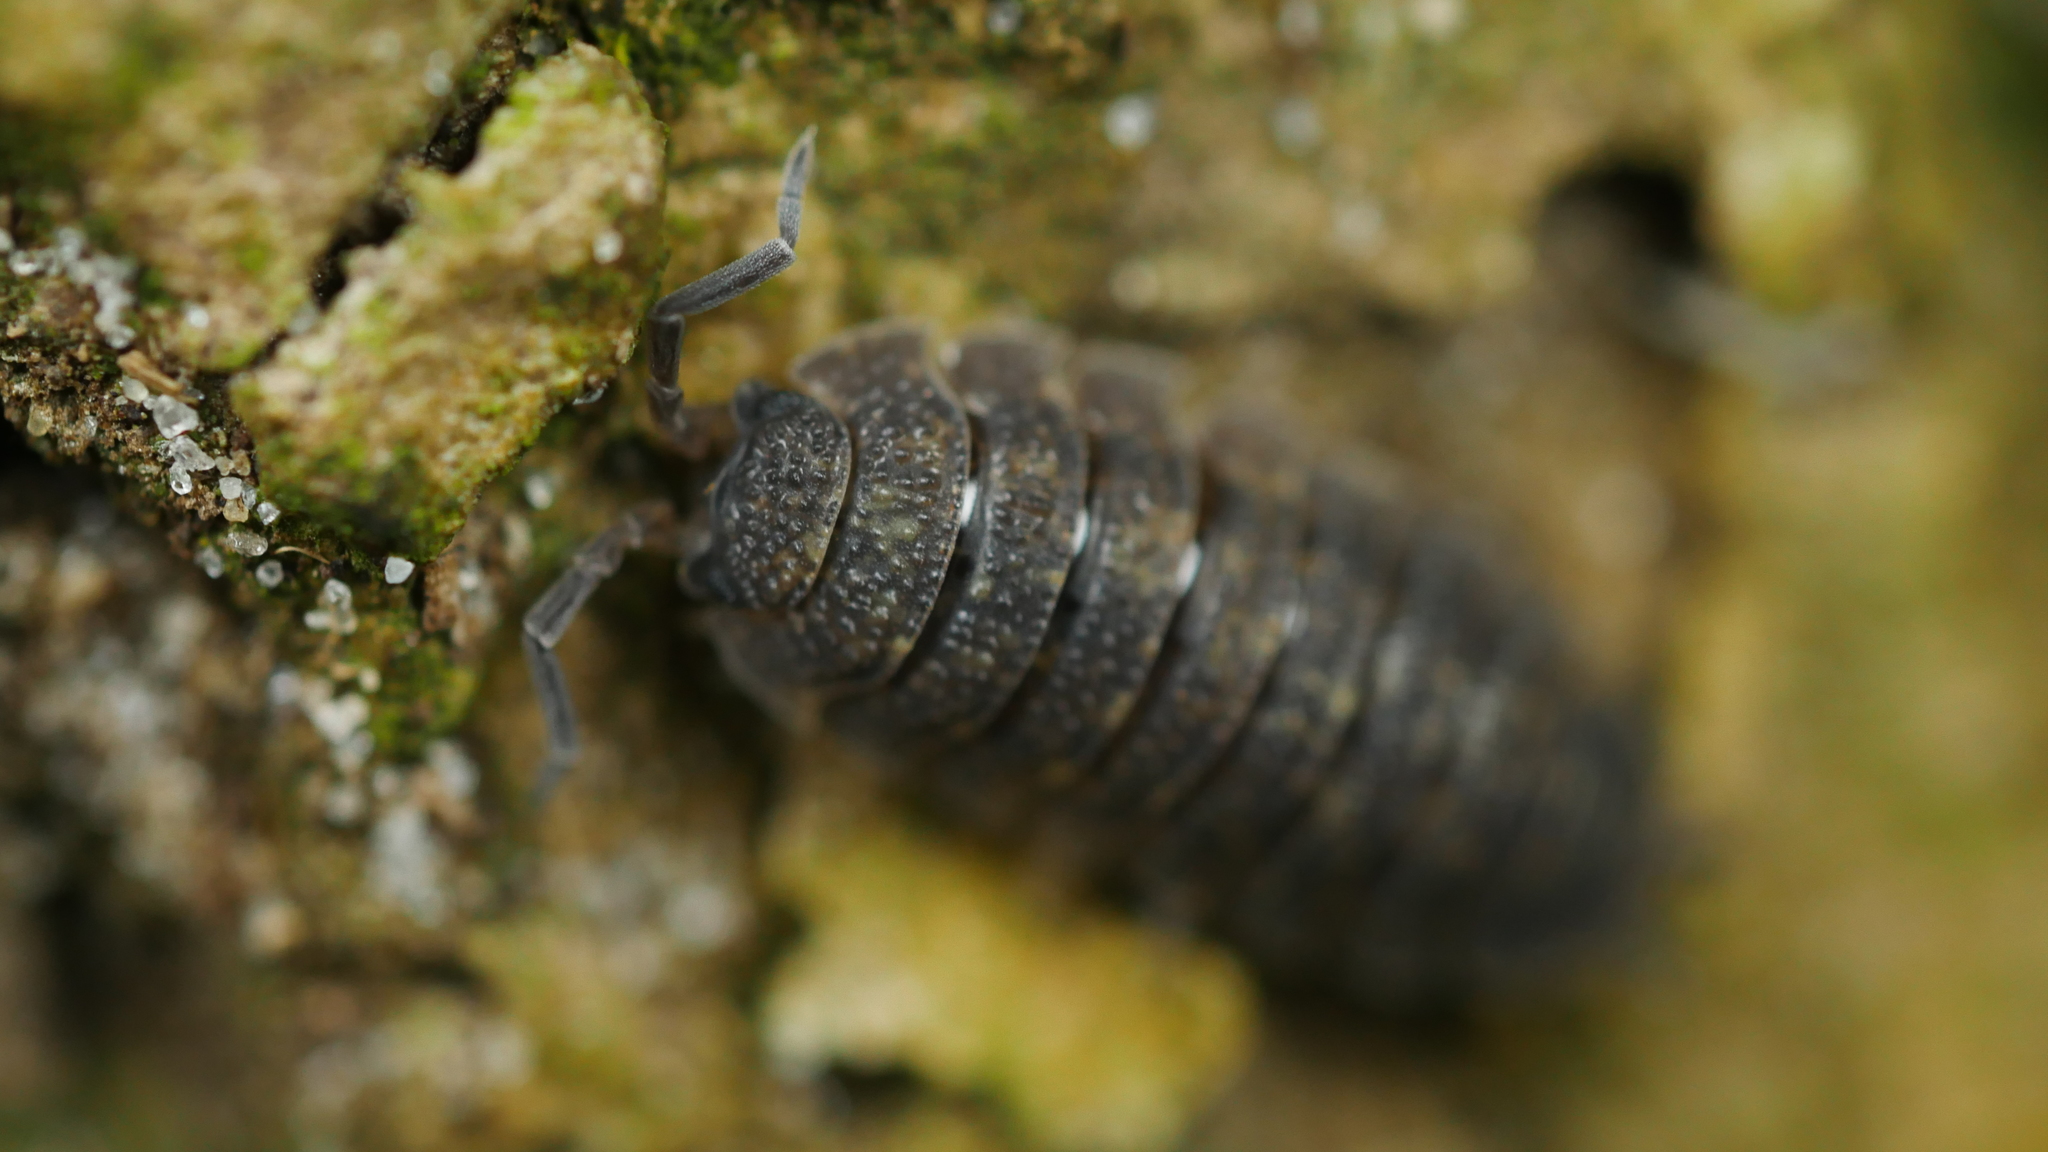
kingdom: Animalia
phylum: Arthropoda
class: Malacostraca
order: Isopoda
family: Porcellionidae
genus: Porcellio
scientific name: Porcellio scaber
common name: Common rough woodlouse
